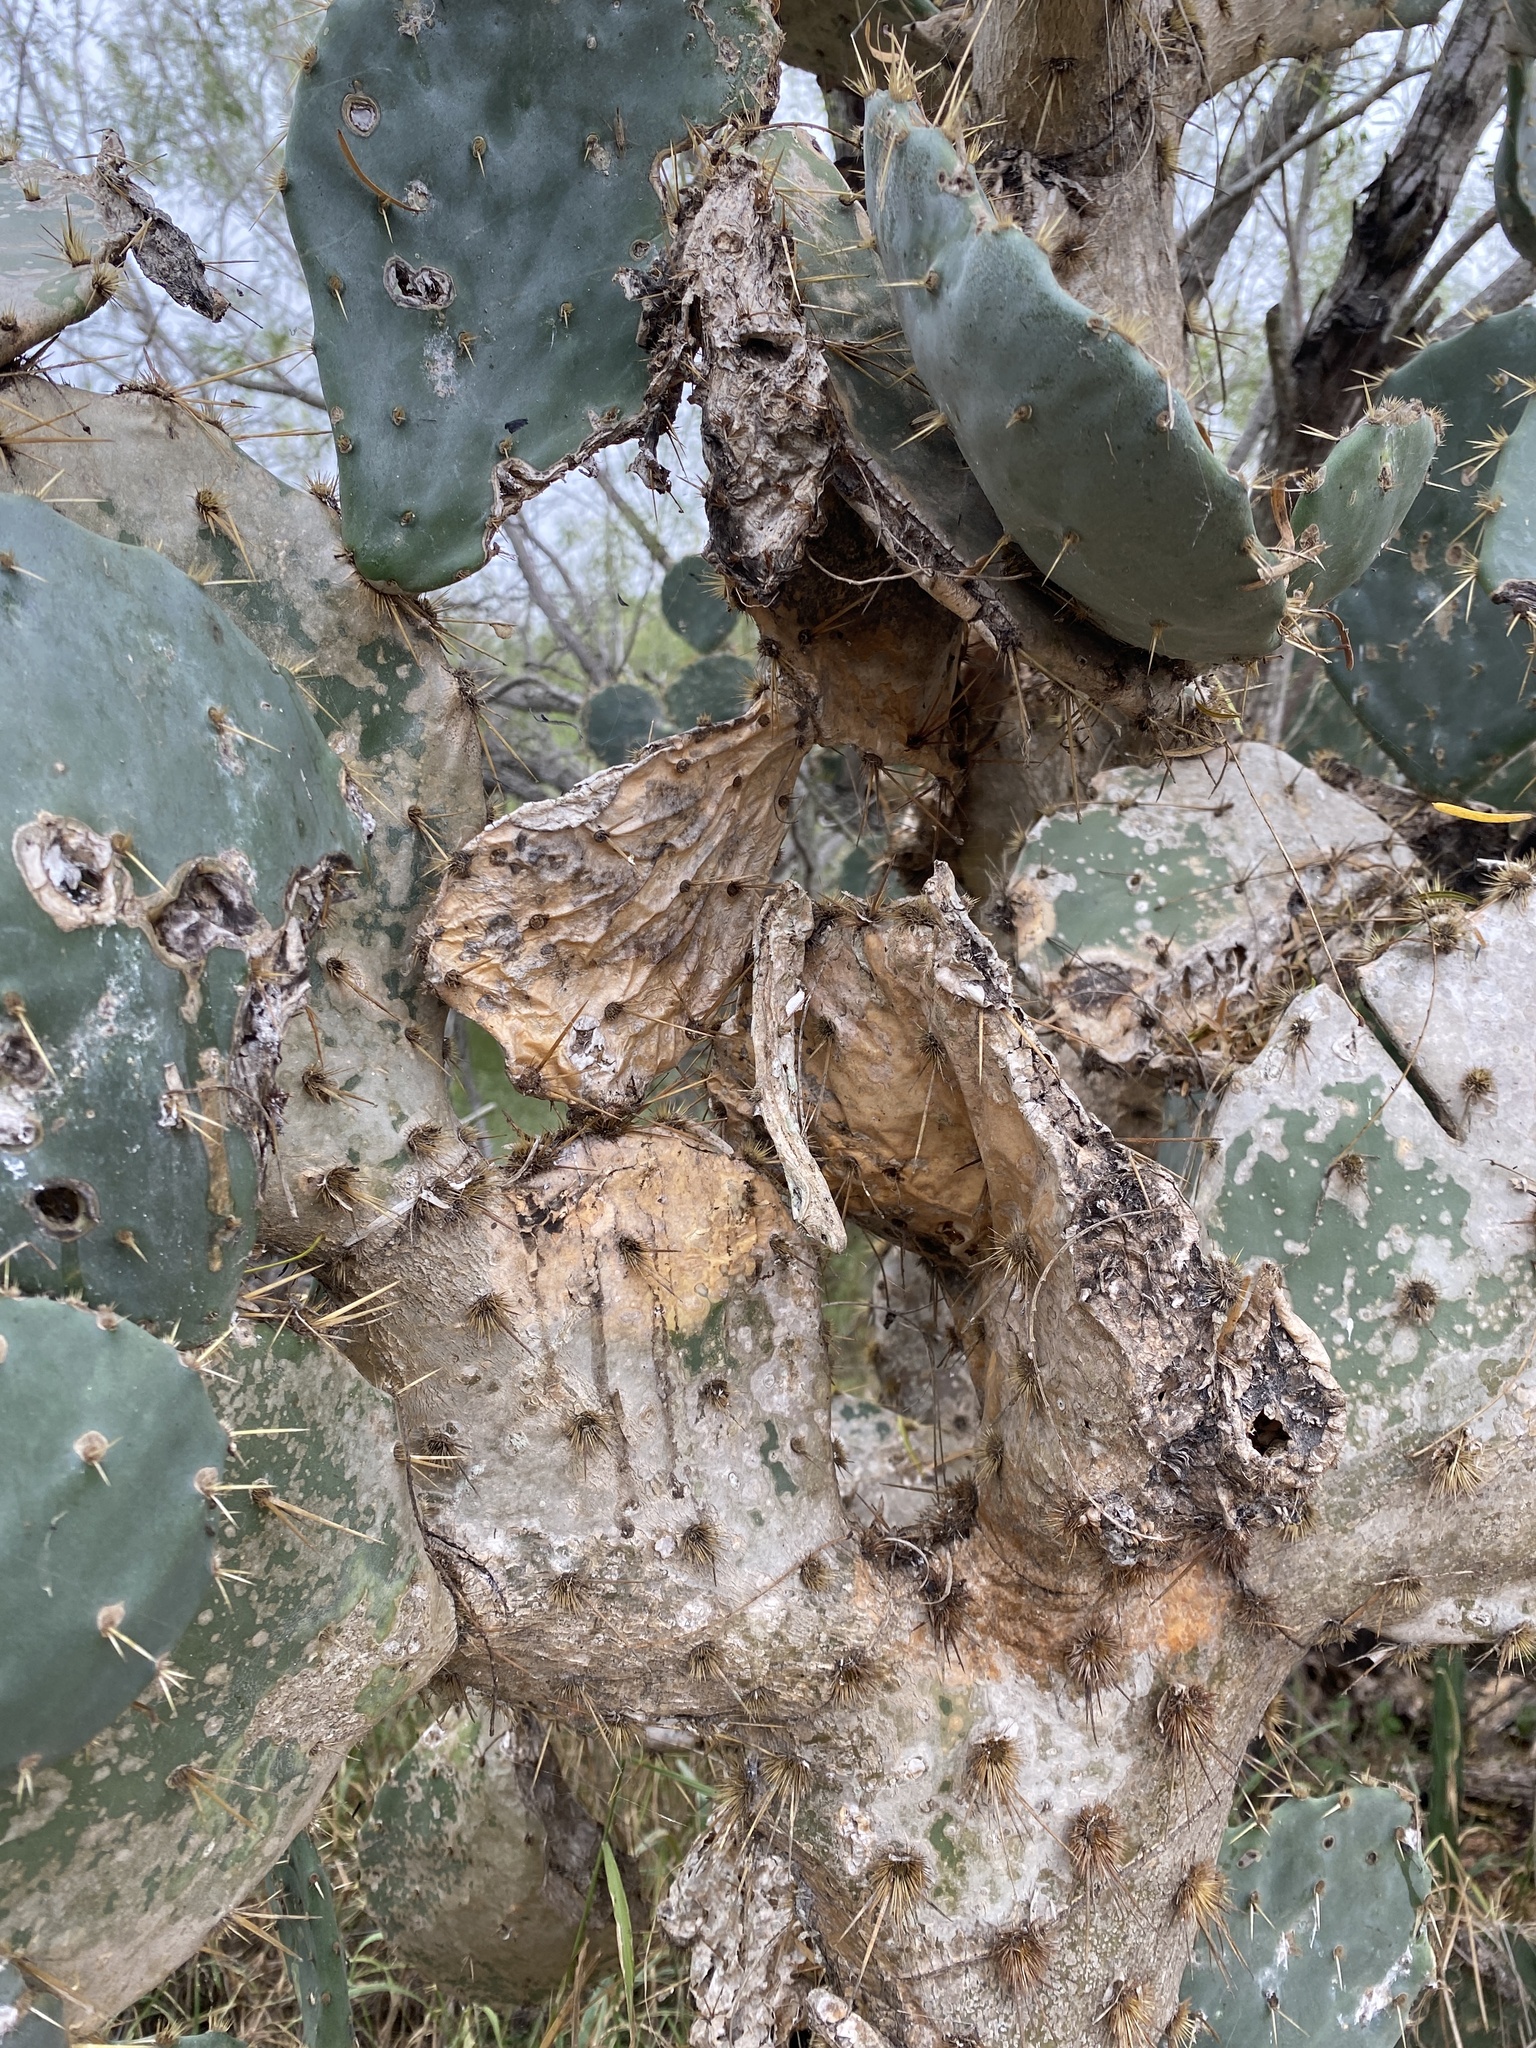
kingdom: Plantae
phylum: Tracheophyta
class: Magnoliopsida
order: Caryophyllales
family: Cactaceae
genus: Opuntia
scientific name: Opuntia alta
